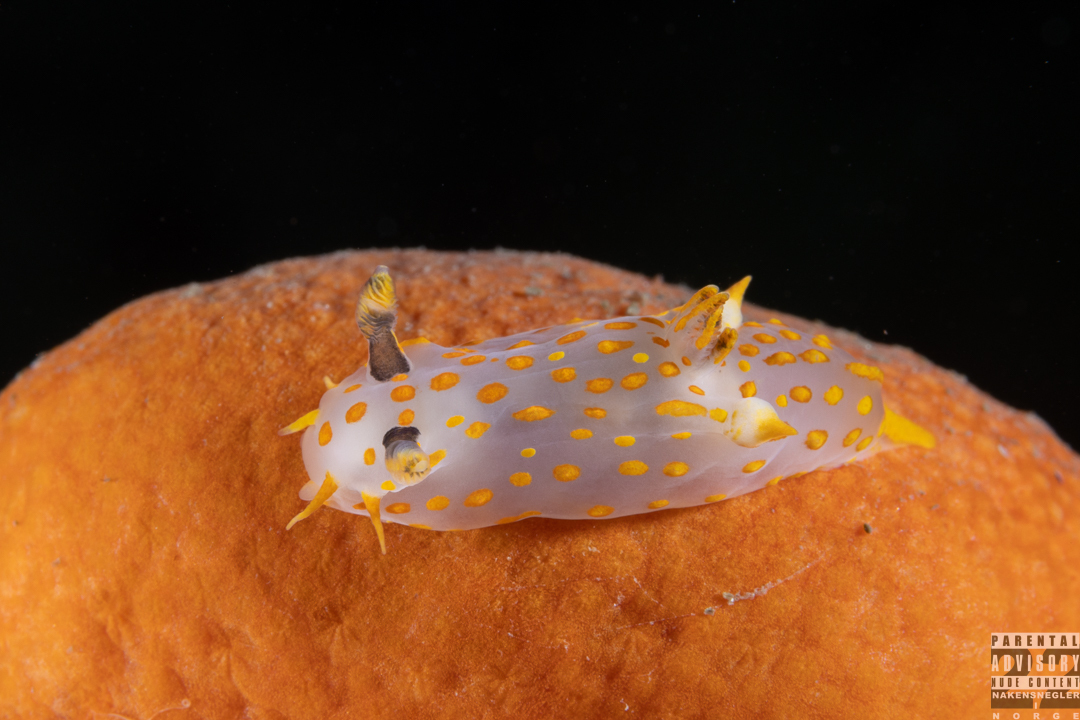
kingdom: Animalia
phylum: Mollusca
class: Gastropoda
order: Nudibranchia
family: Polyceridae
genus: Polycera
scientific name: Polycera quadrilineata
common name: Four-striped polycera
